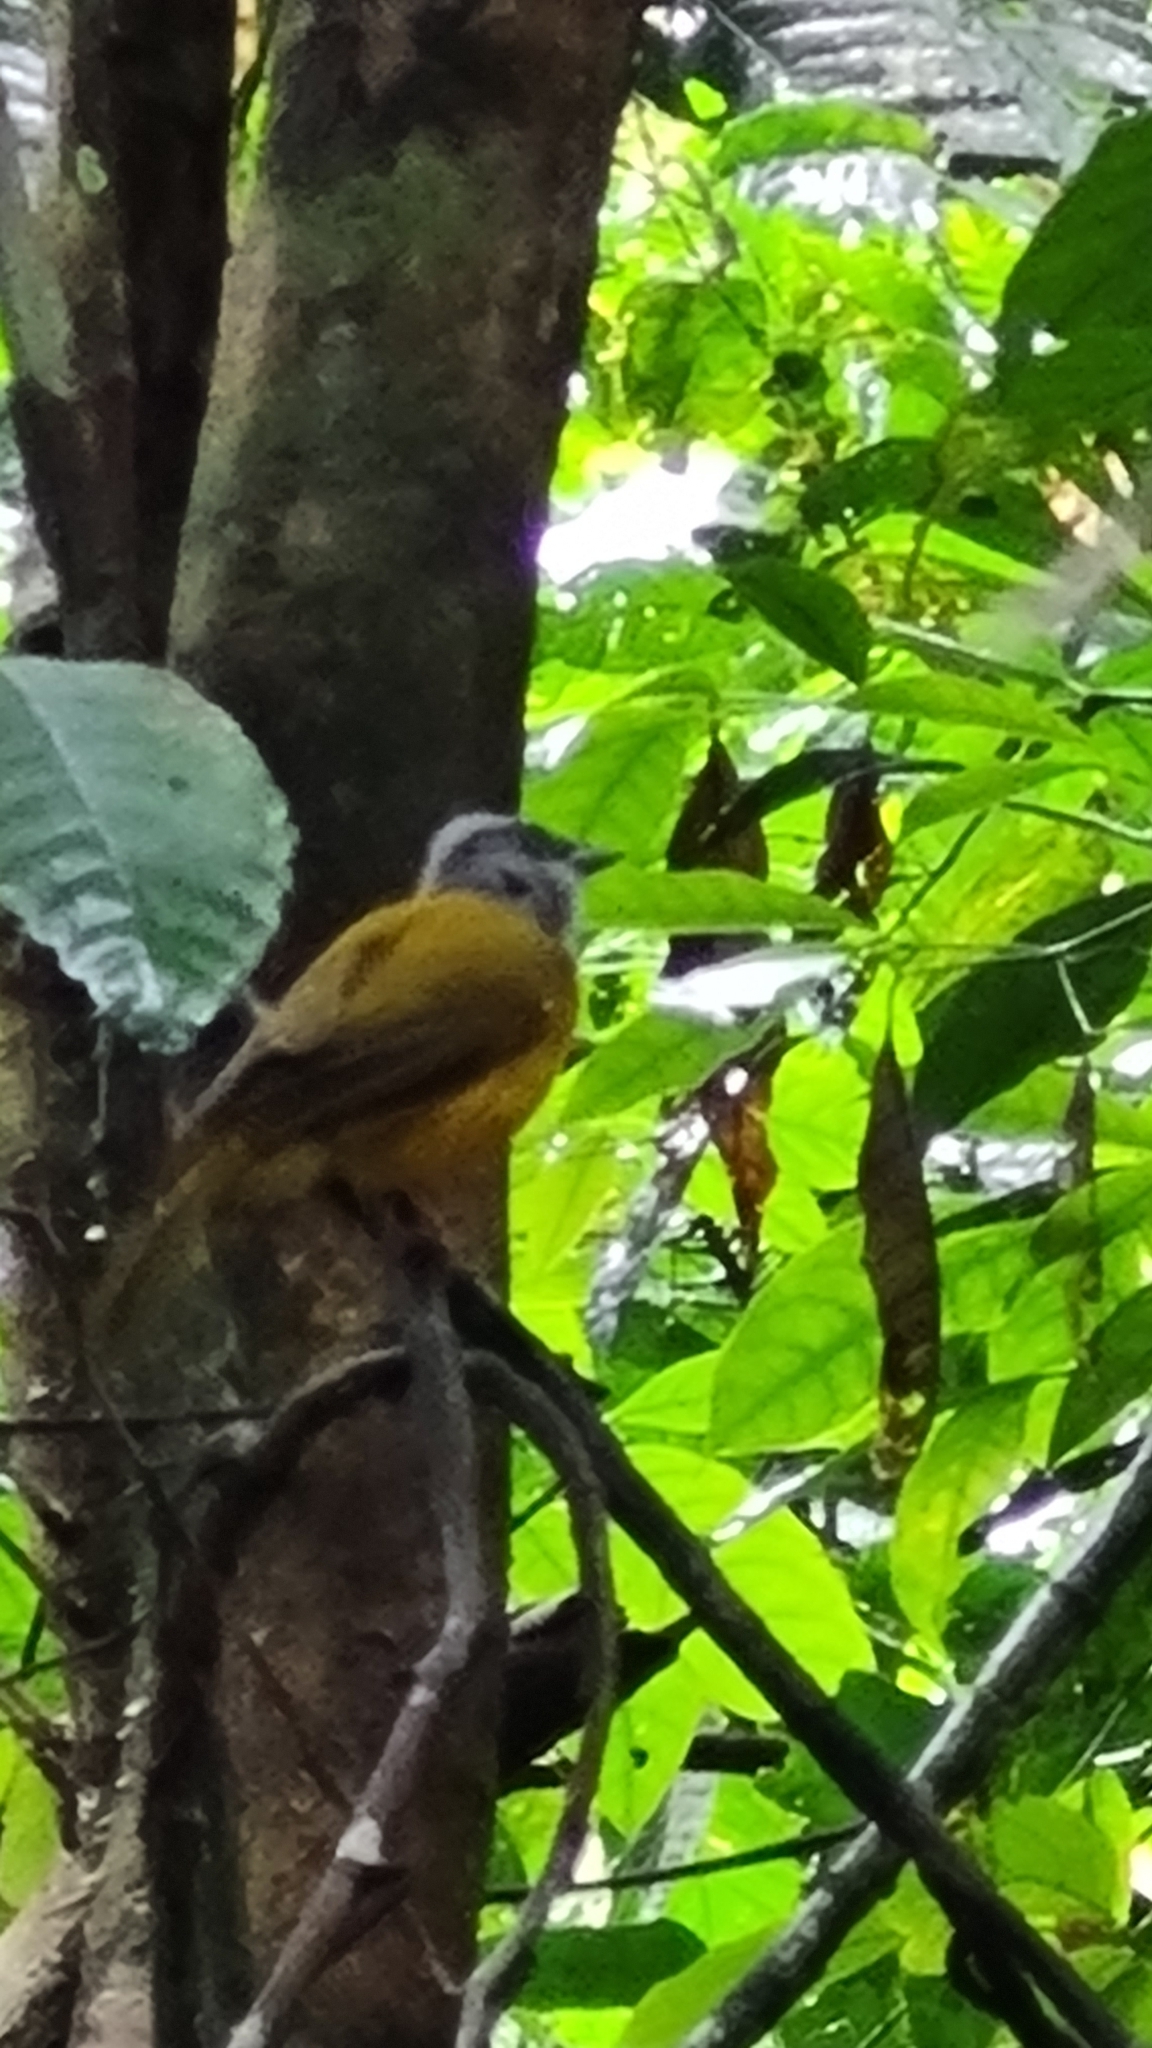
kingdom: Animalia
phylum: Chordata
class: Aves
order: Passeriformes
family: Thraupidae
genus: Eucometis
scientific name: Eucometis penicillata
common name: Grey-headed tanager
